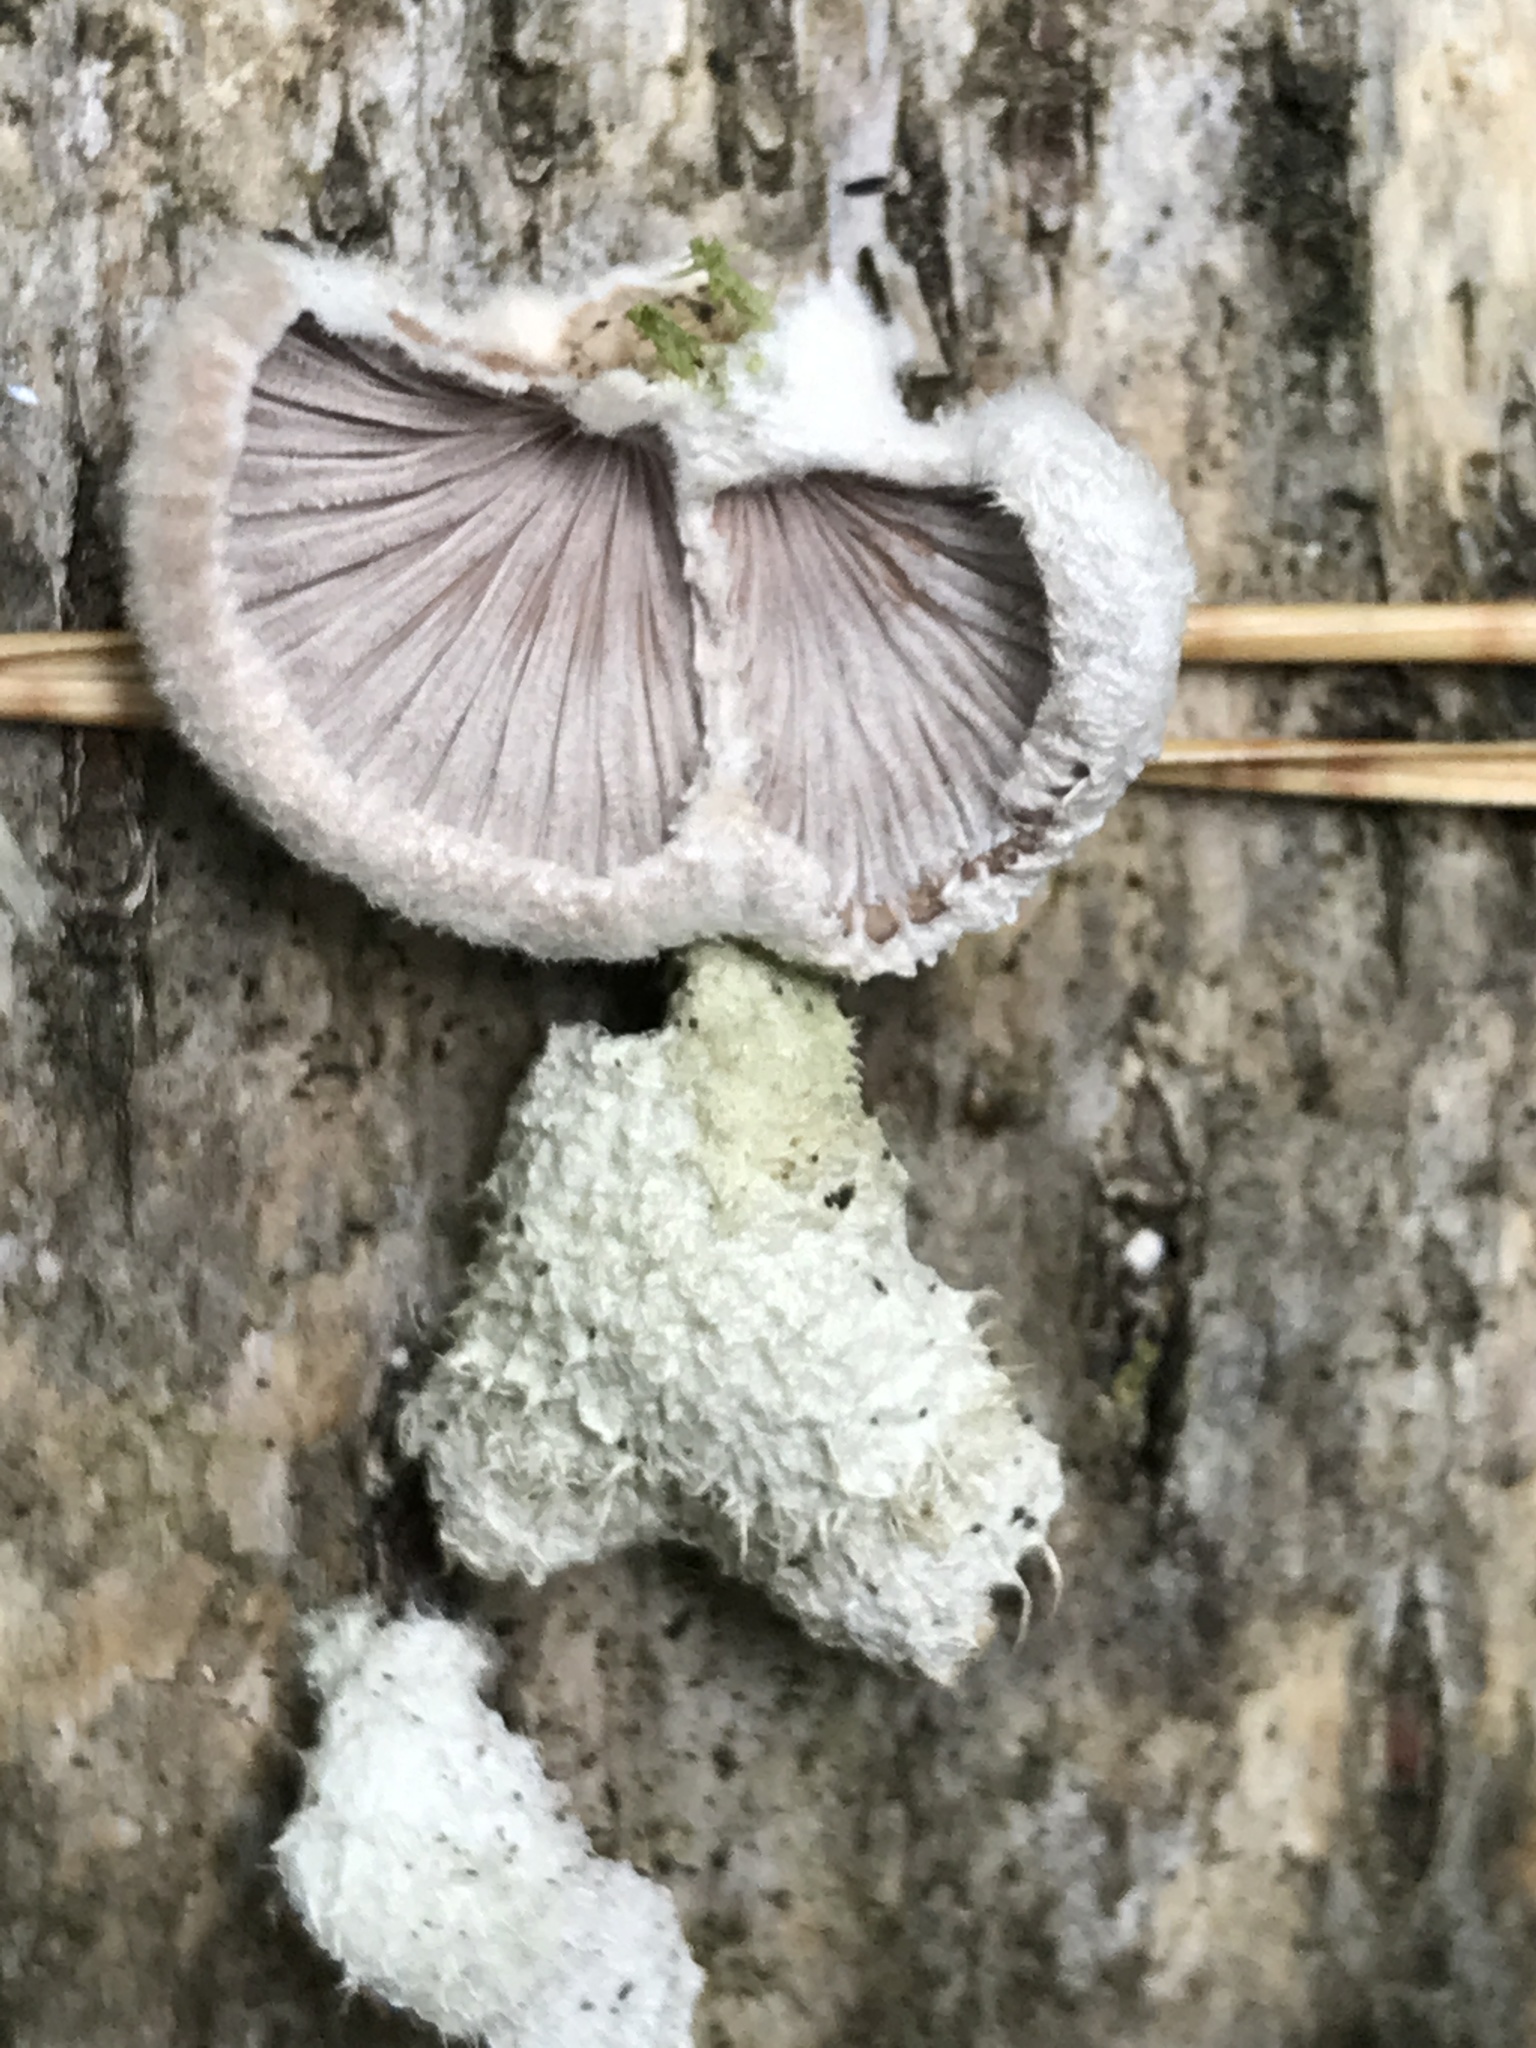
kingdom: Fungi
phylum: Basidiomycota
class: Agaricomycetes
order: Agaricales
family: Schizophyllaceae
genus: Schizophyllum
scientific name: Schizophyllum commune
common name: Common porecrust
